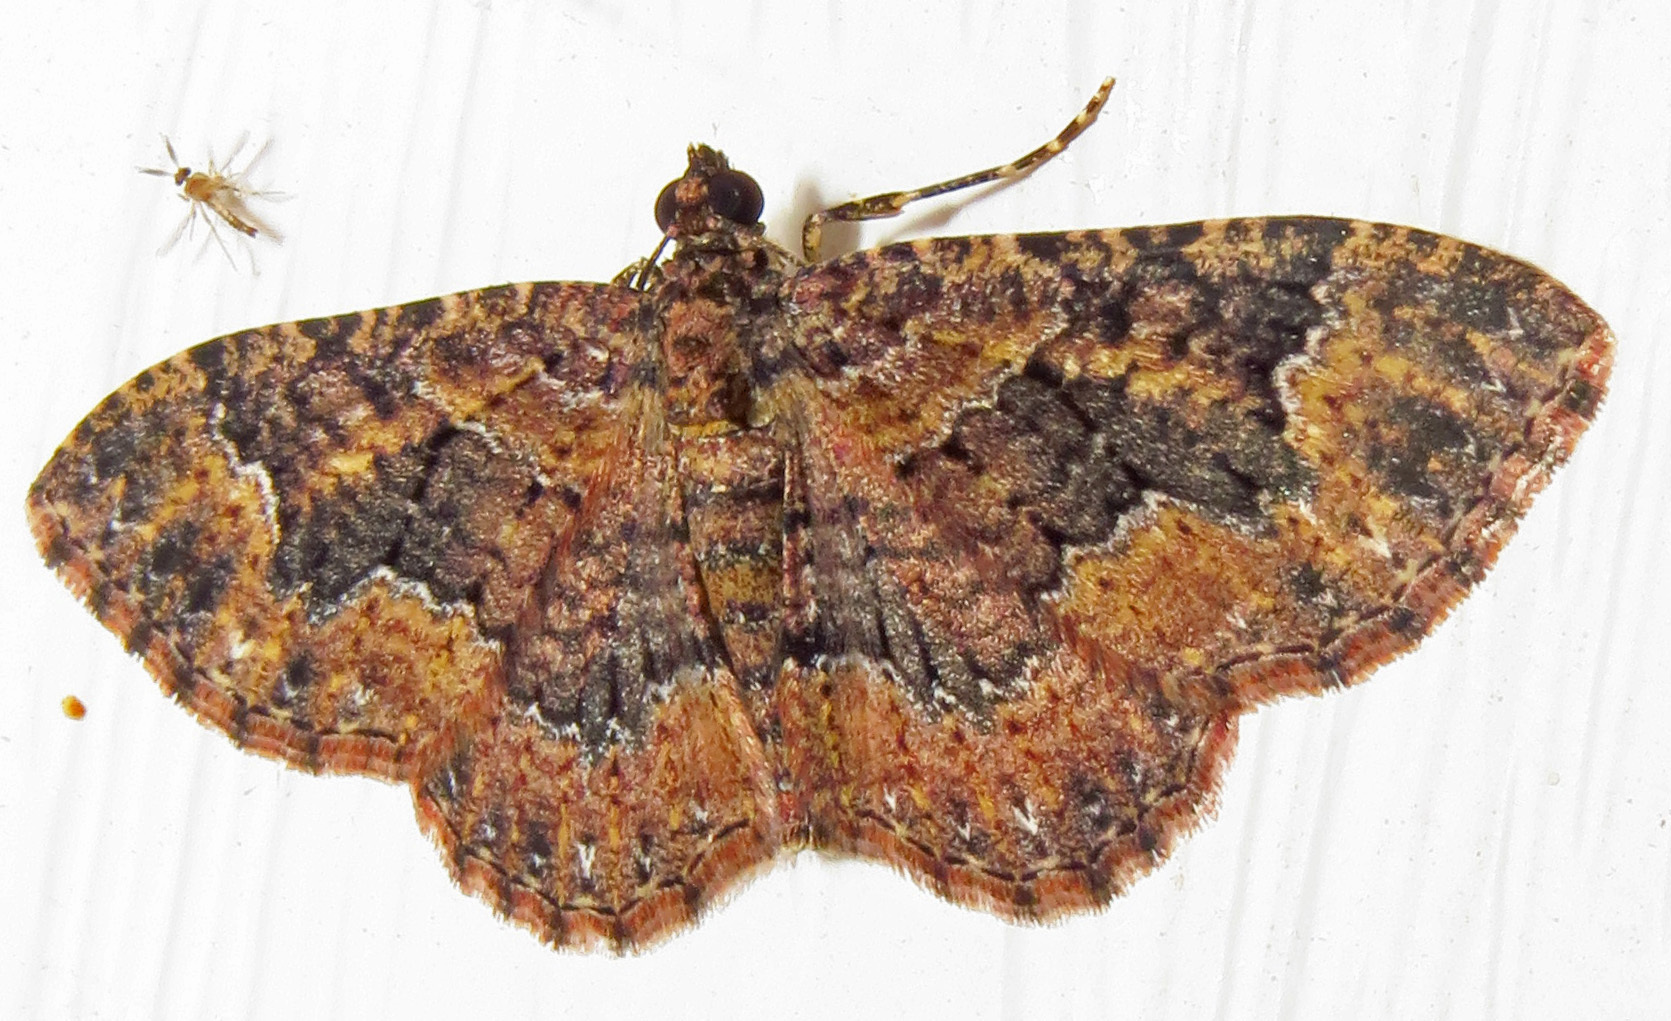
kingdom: Animalia
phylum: Arthropoda
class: Insecta
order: Lepidoptera
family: Geometridae
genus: Disclisioprocta
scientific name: Disclisioprocta stellata
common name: Somber carpet
